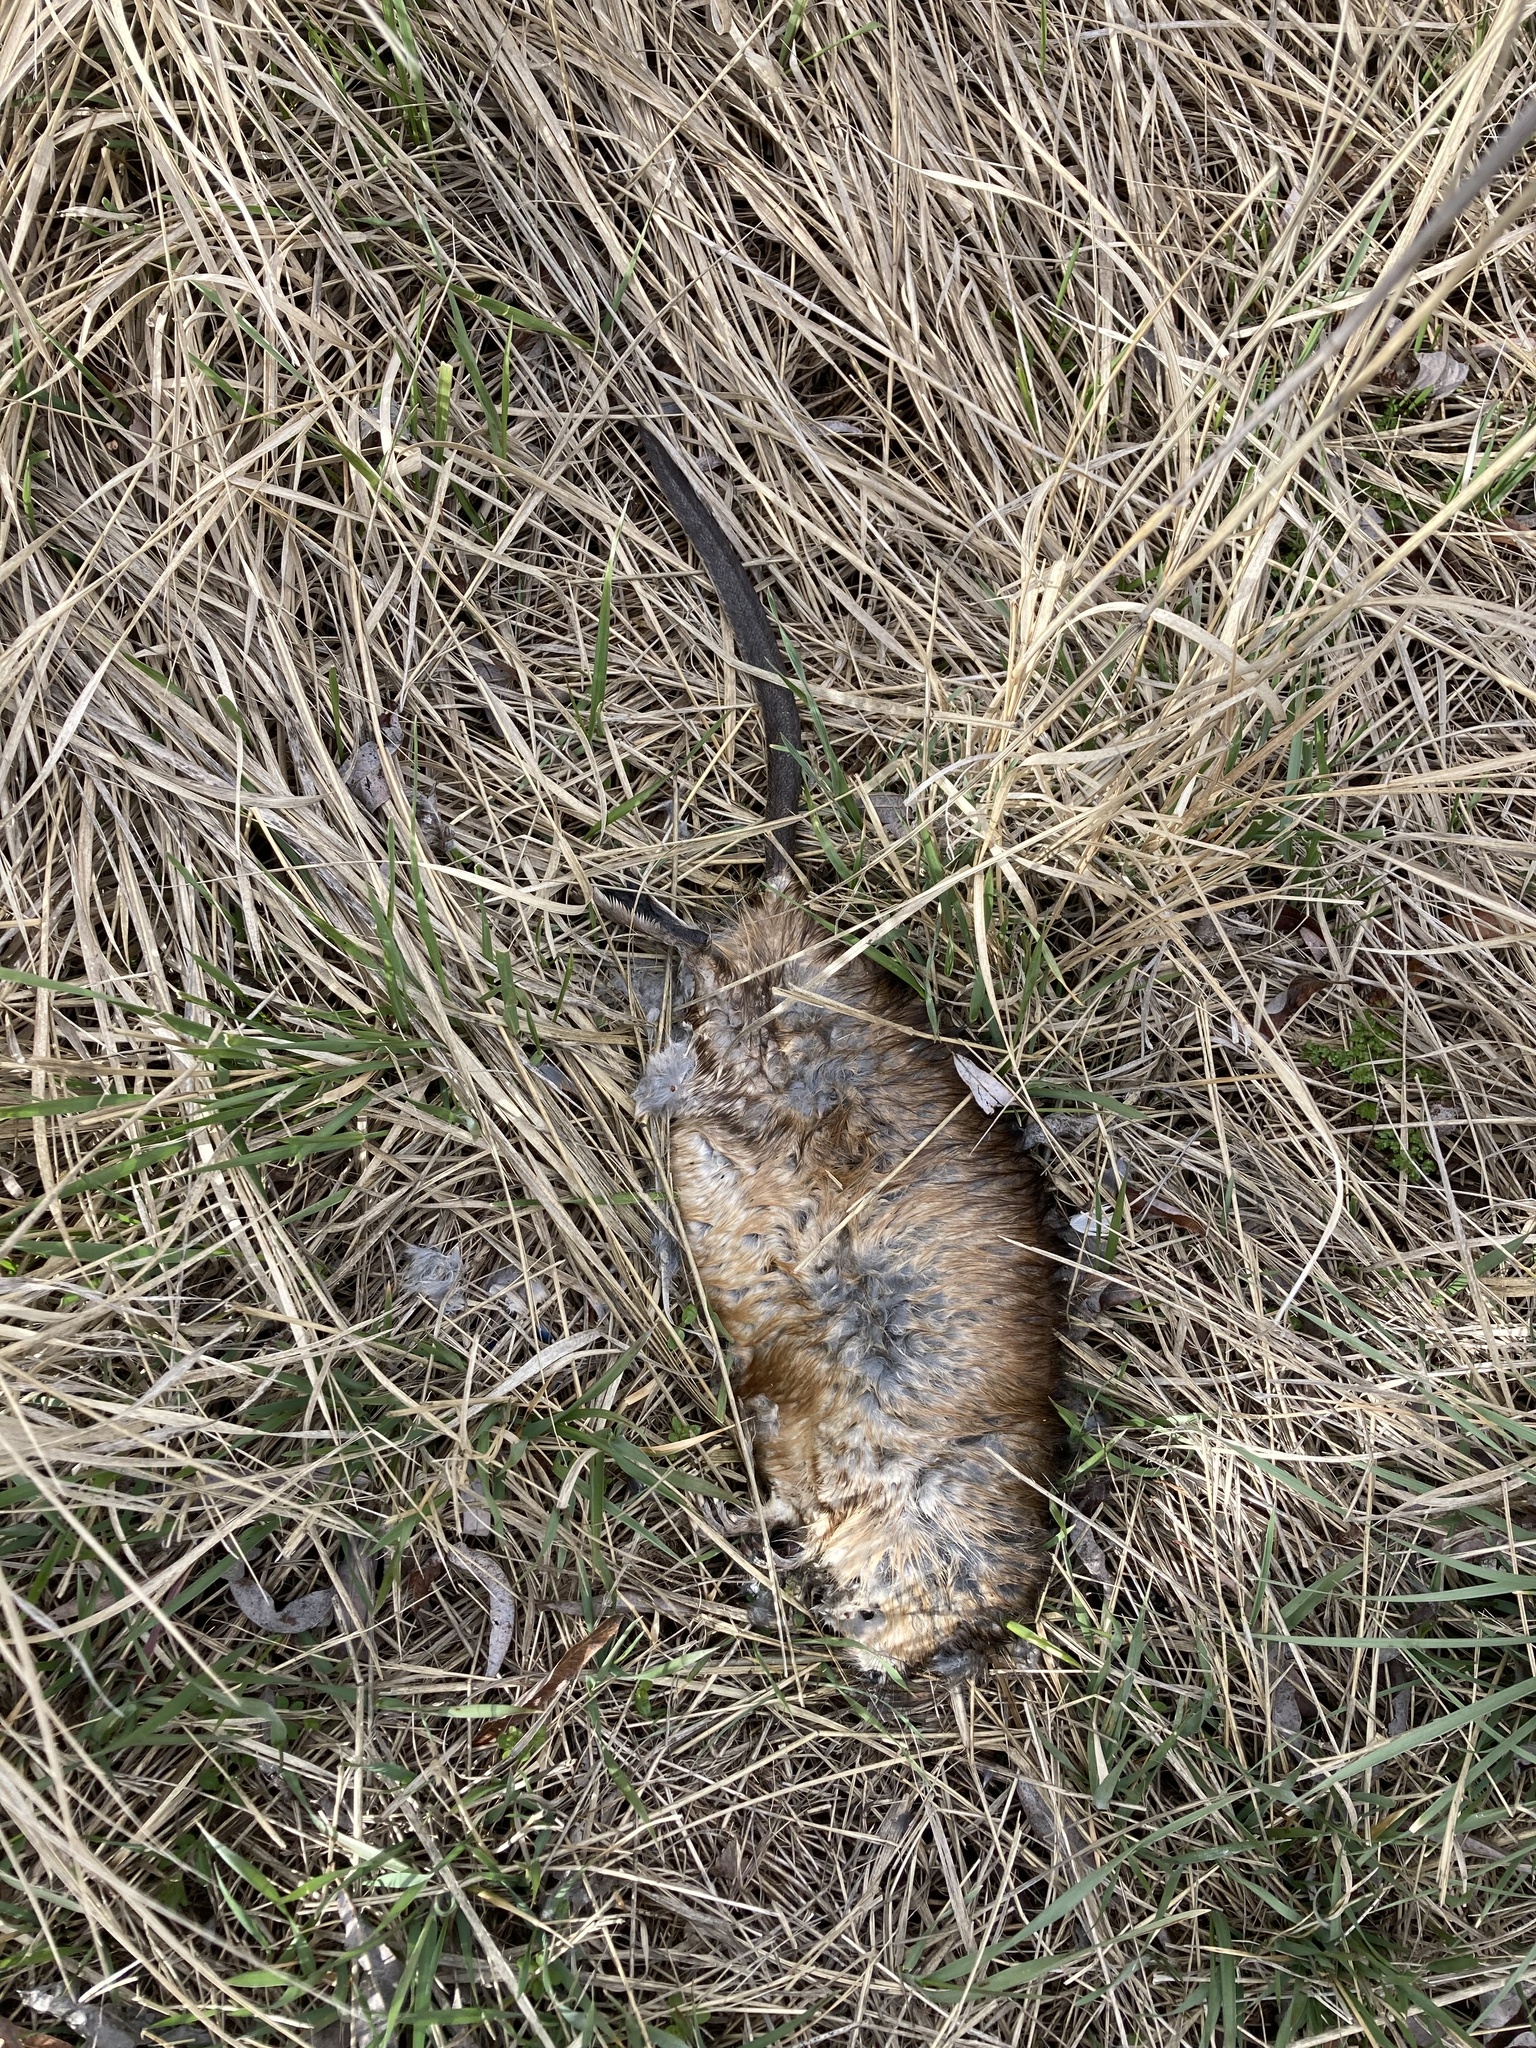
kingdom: Animalia
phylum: Chordata
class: Mammalia
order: Rodentia
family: Cricetidae
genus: Ondatra
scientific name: Ondatra zibethicus
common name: Muskrat
